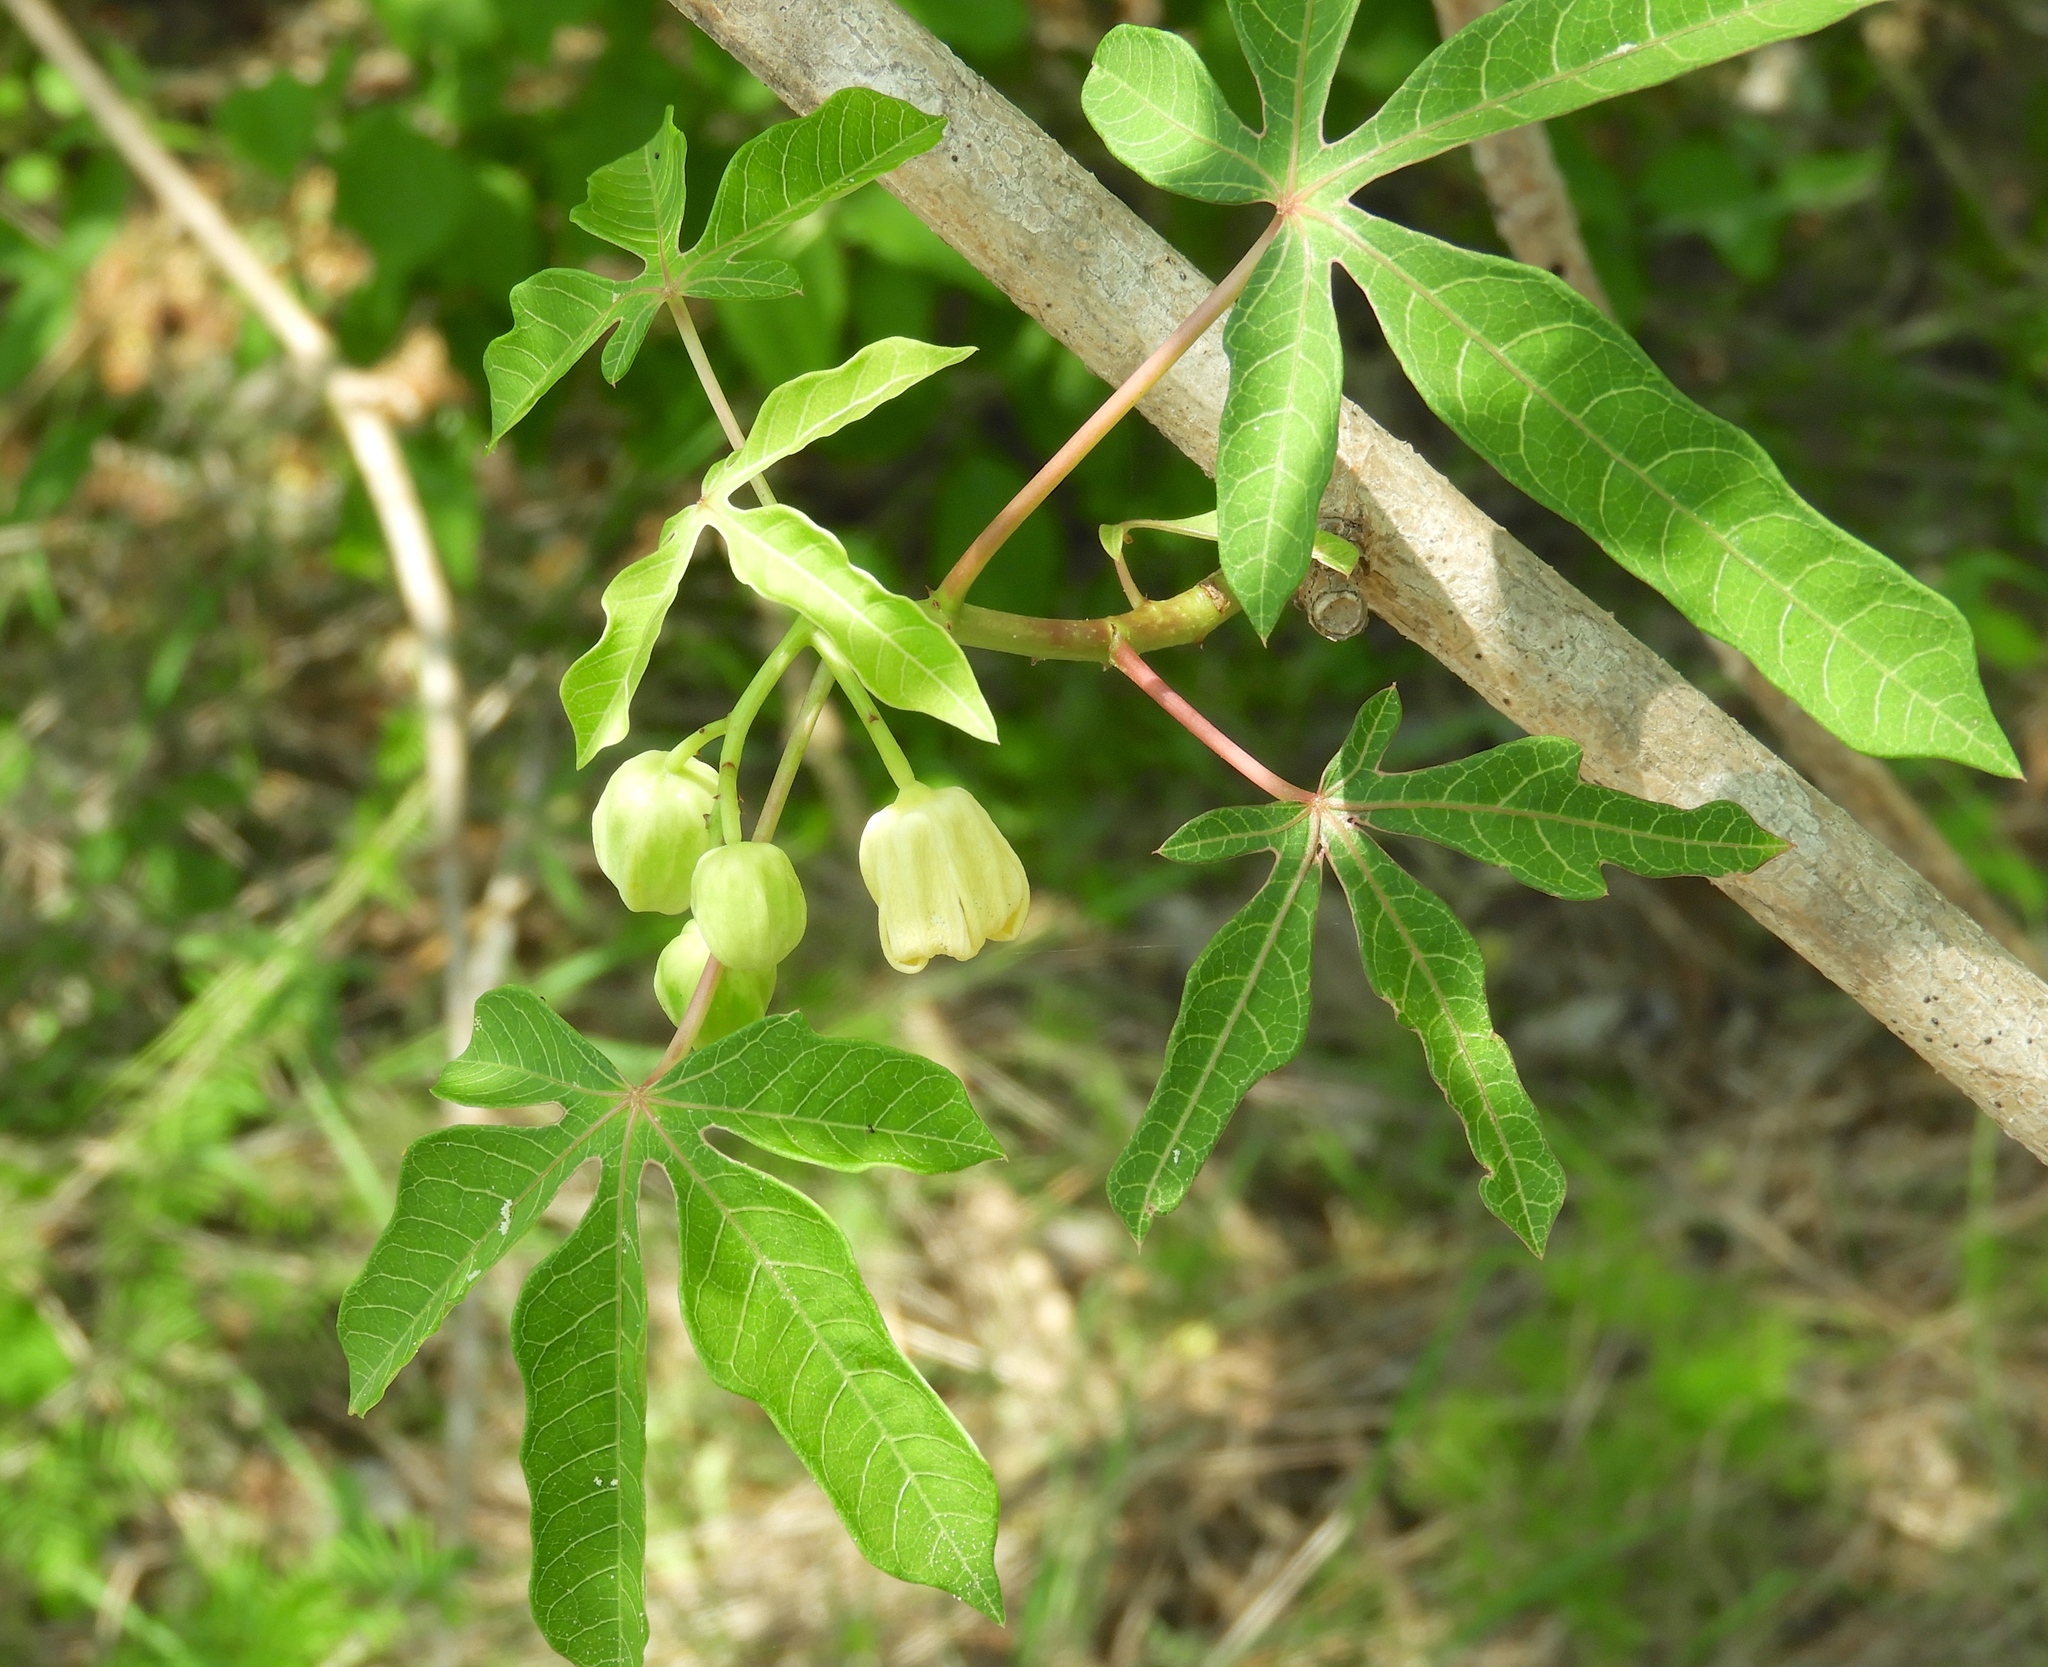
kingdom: Plantae
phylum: Tracheophyta
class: Magnoliopsida
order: Malpighiales
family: Euphorbiaceae
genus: Manihot
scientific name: Manihot esculenta
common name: Cassava
